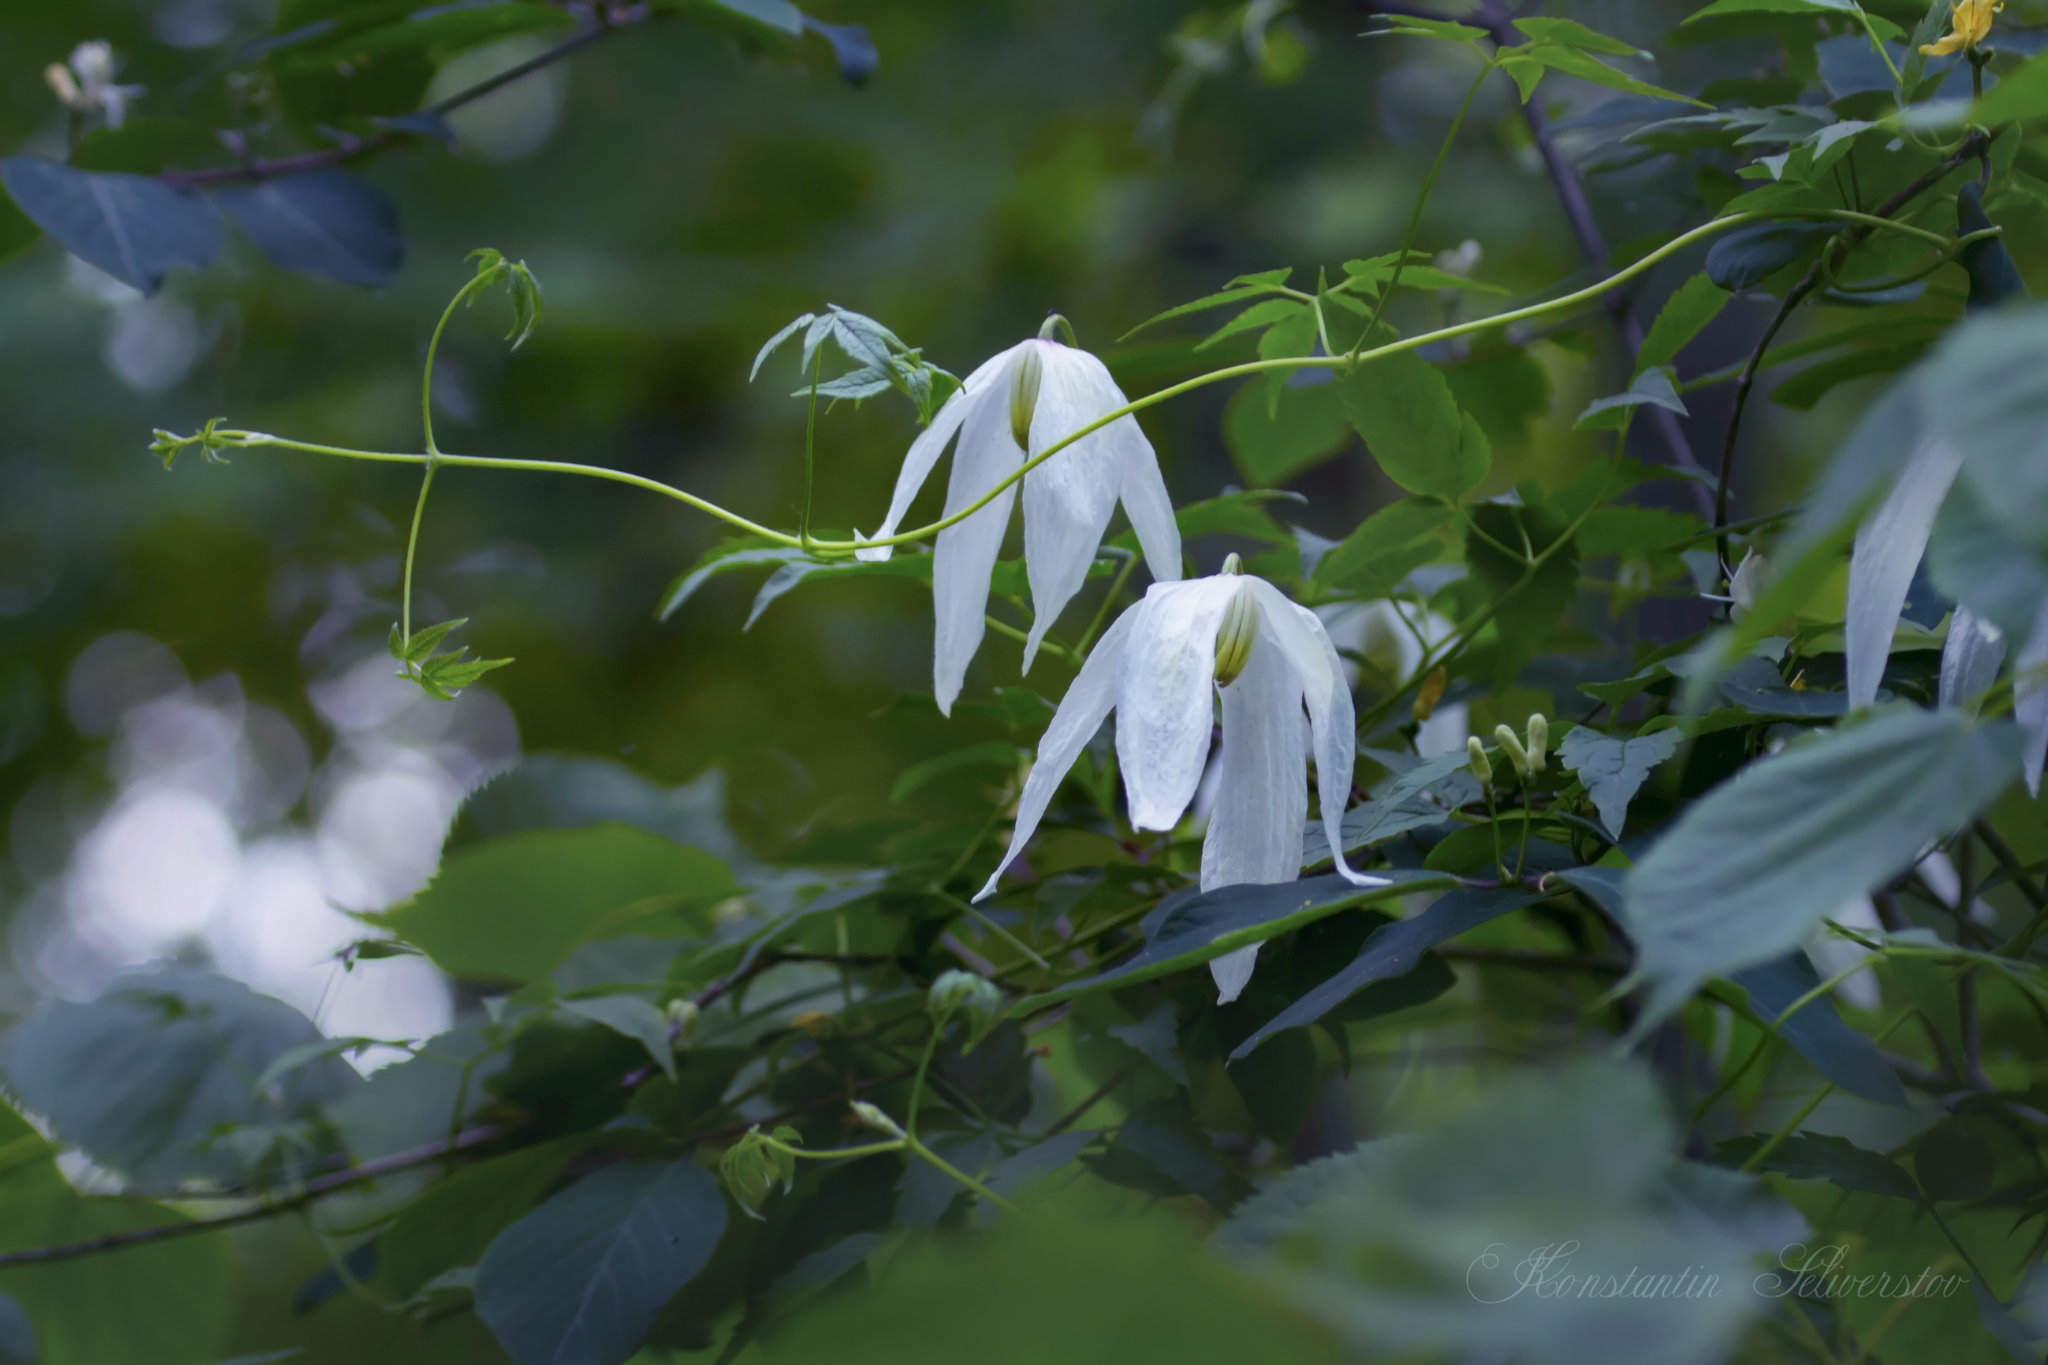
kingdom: Plantae
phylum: Tracheophyta
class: Magnoliopsida
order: Ranunculales
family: Ranunculaceae
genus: Clematis
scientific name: Clematis sibirica
